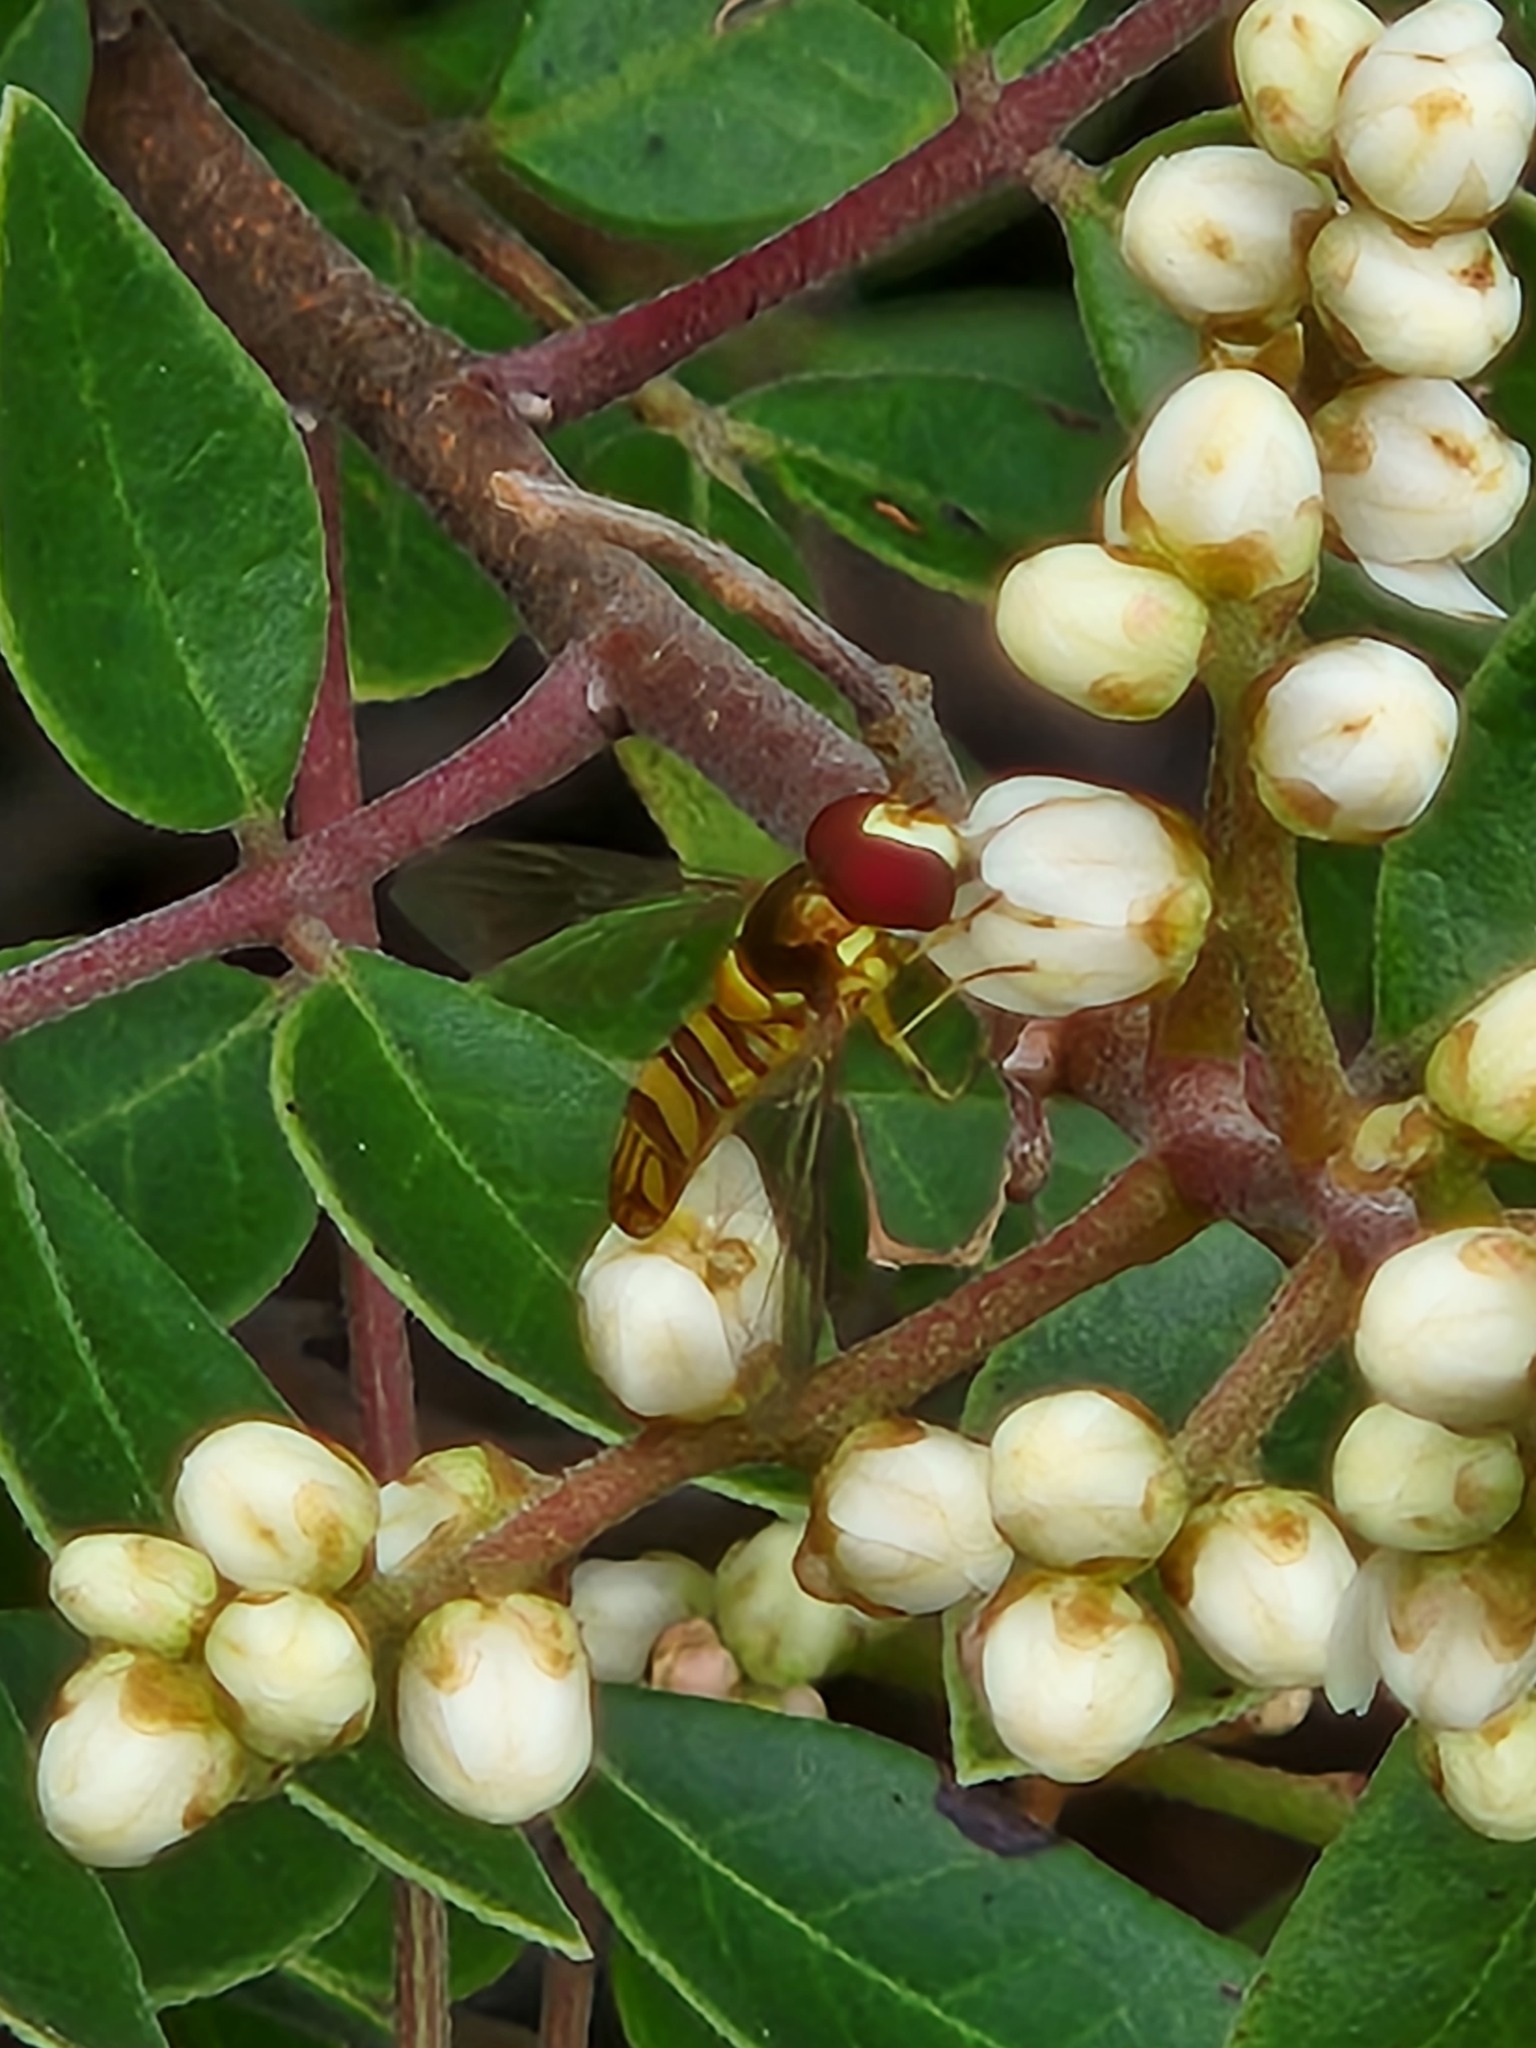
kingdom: Animalia
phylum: Arthropoda
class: Insecta
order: Diptera
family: Syrphidae
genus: Allograpta
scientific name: Allograpta obliqua
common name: Common oblique syrphid
